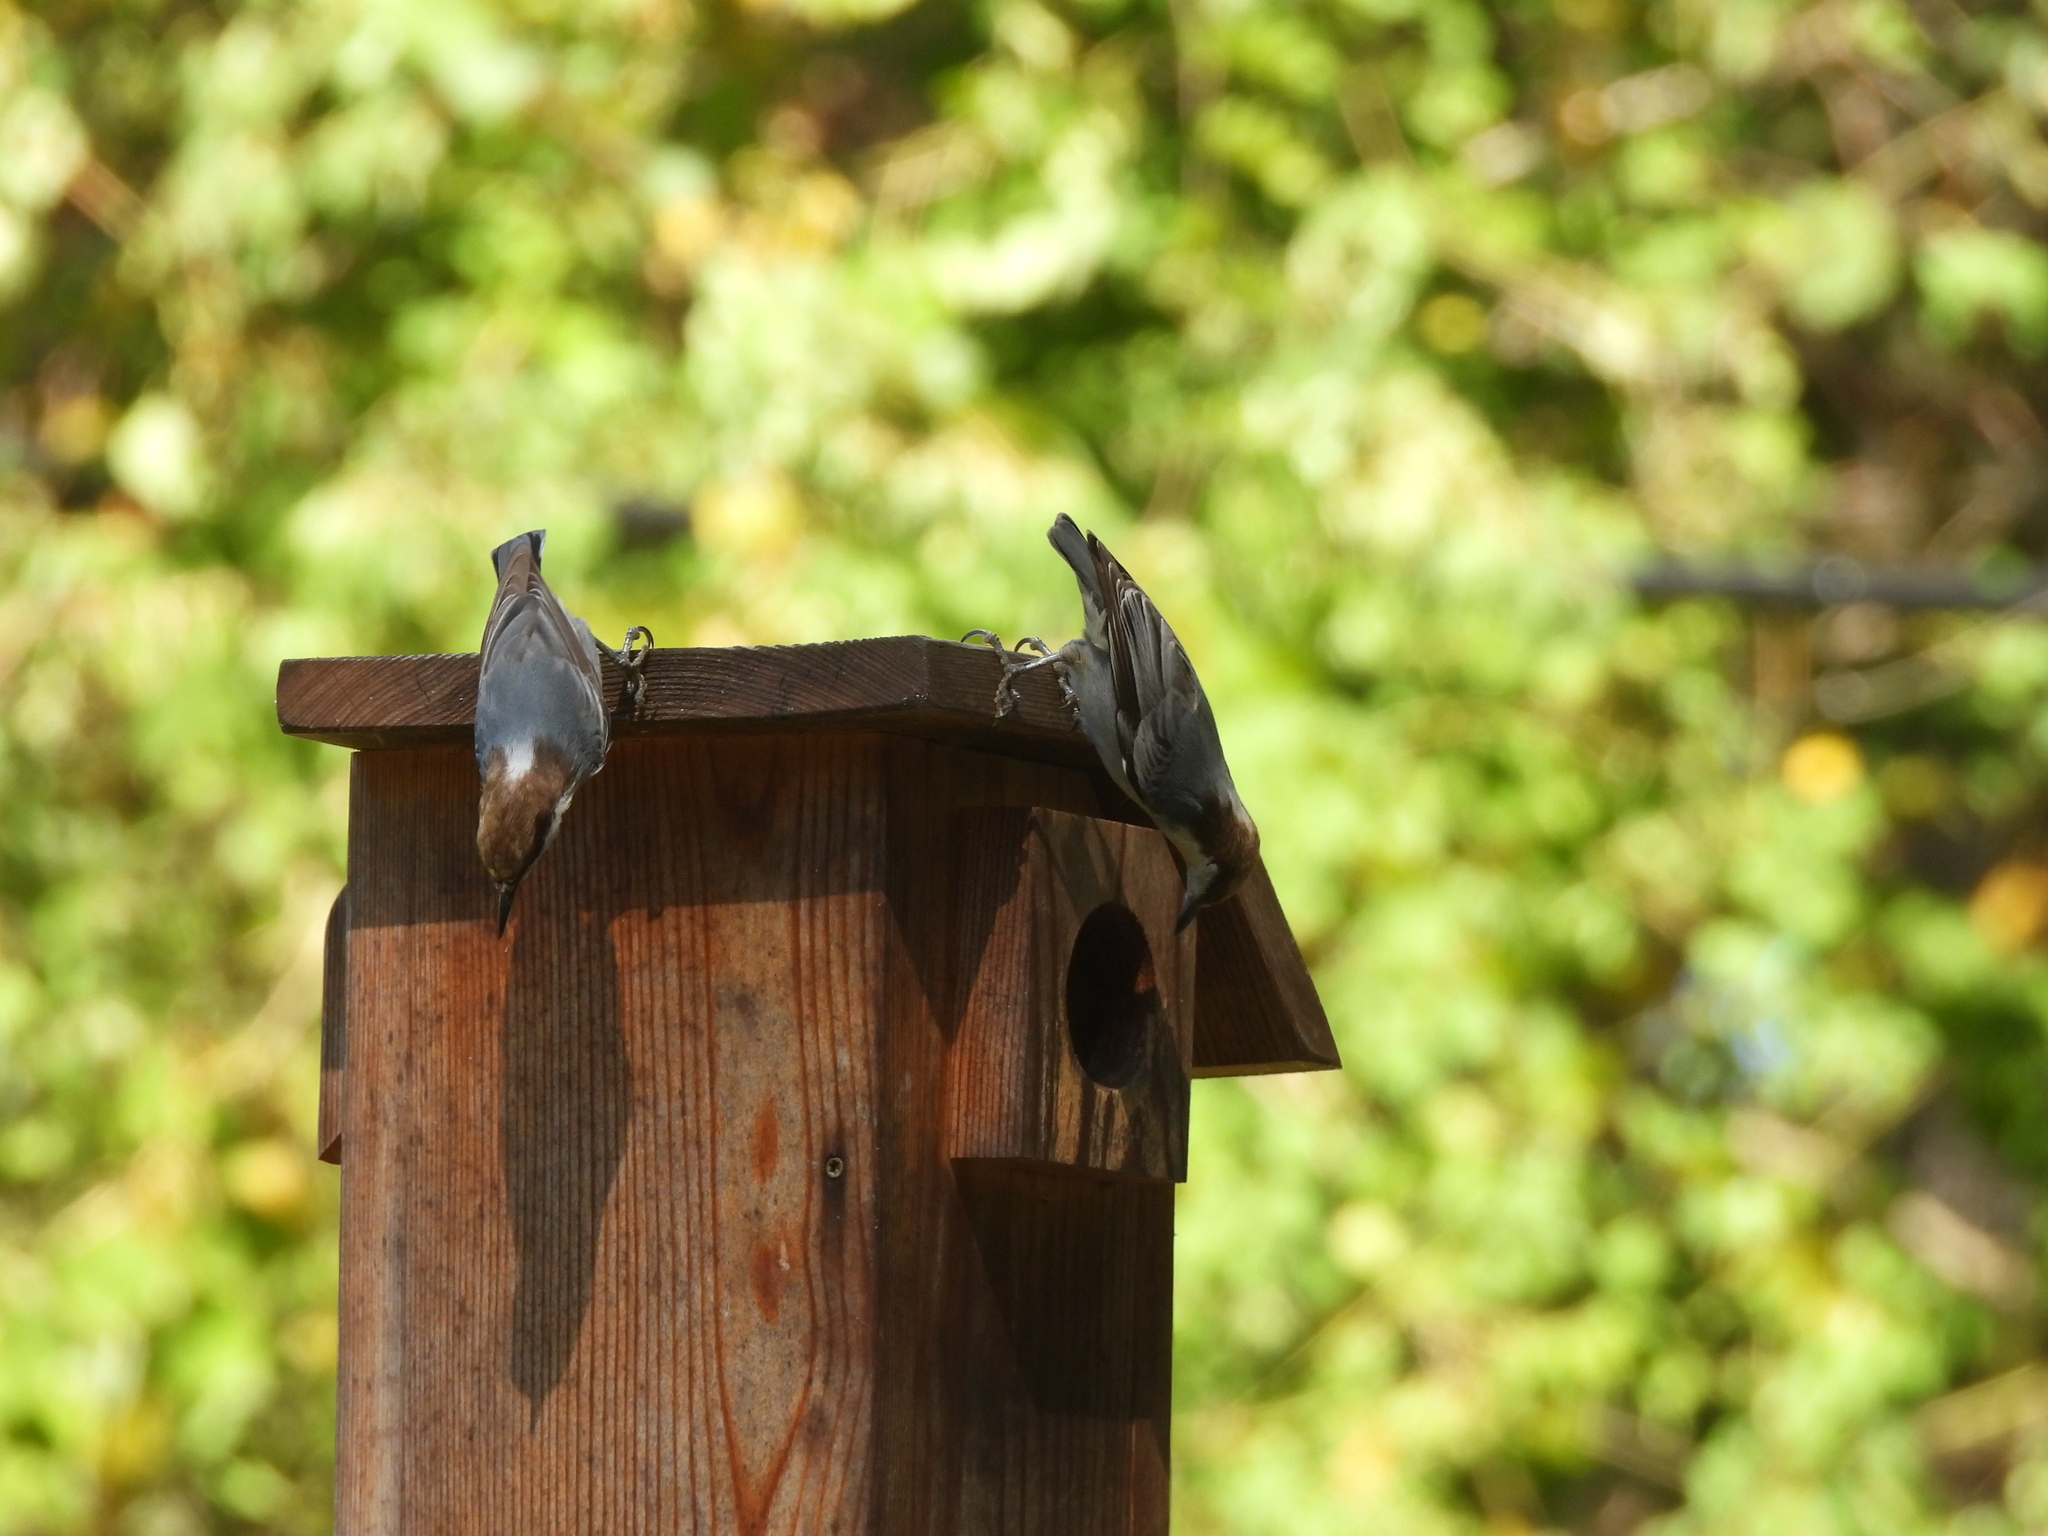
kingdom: Animalia
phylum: Chordata
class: Aves
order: Passeriformes
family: Sittidae
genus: Sitta
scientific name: Sitta pusilla
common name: Brown-headed nuthatch
